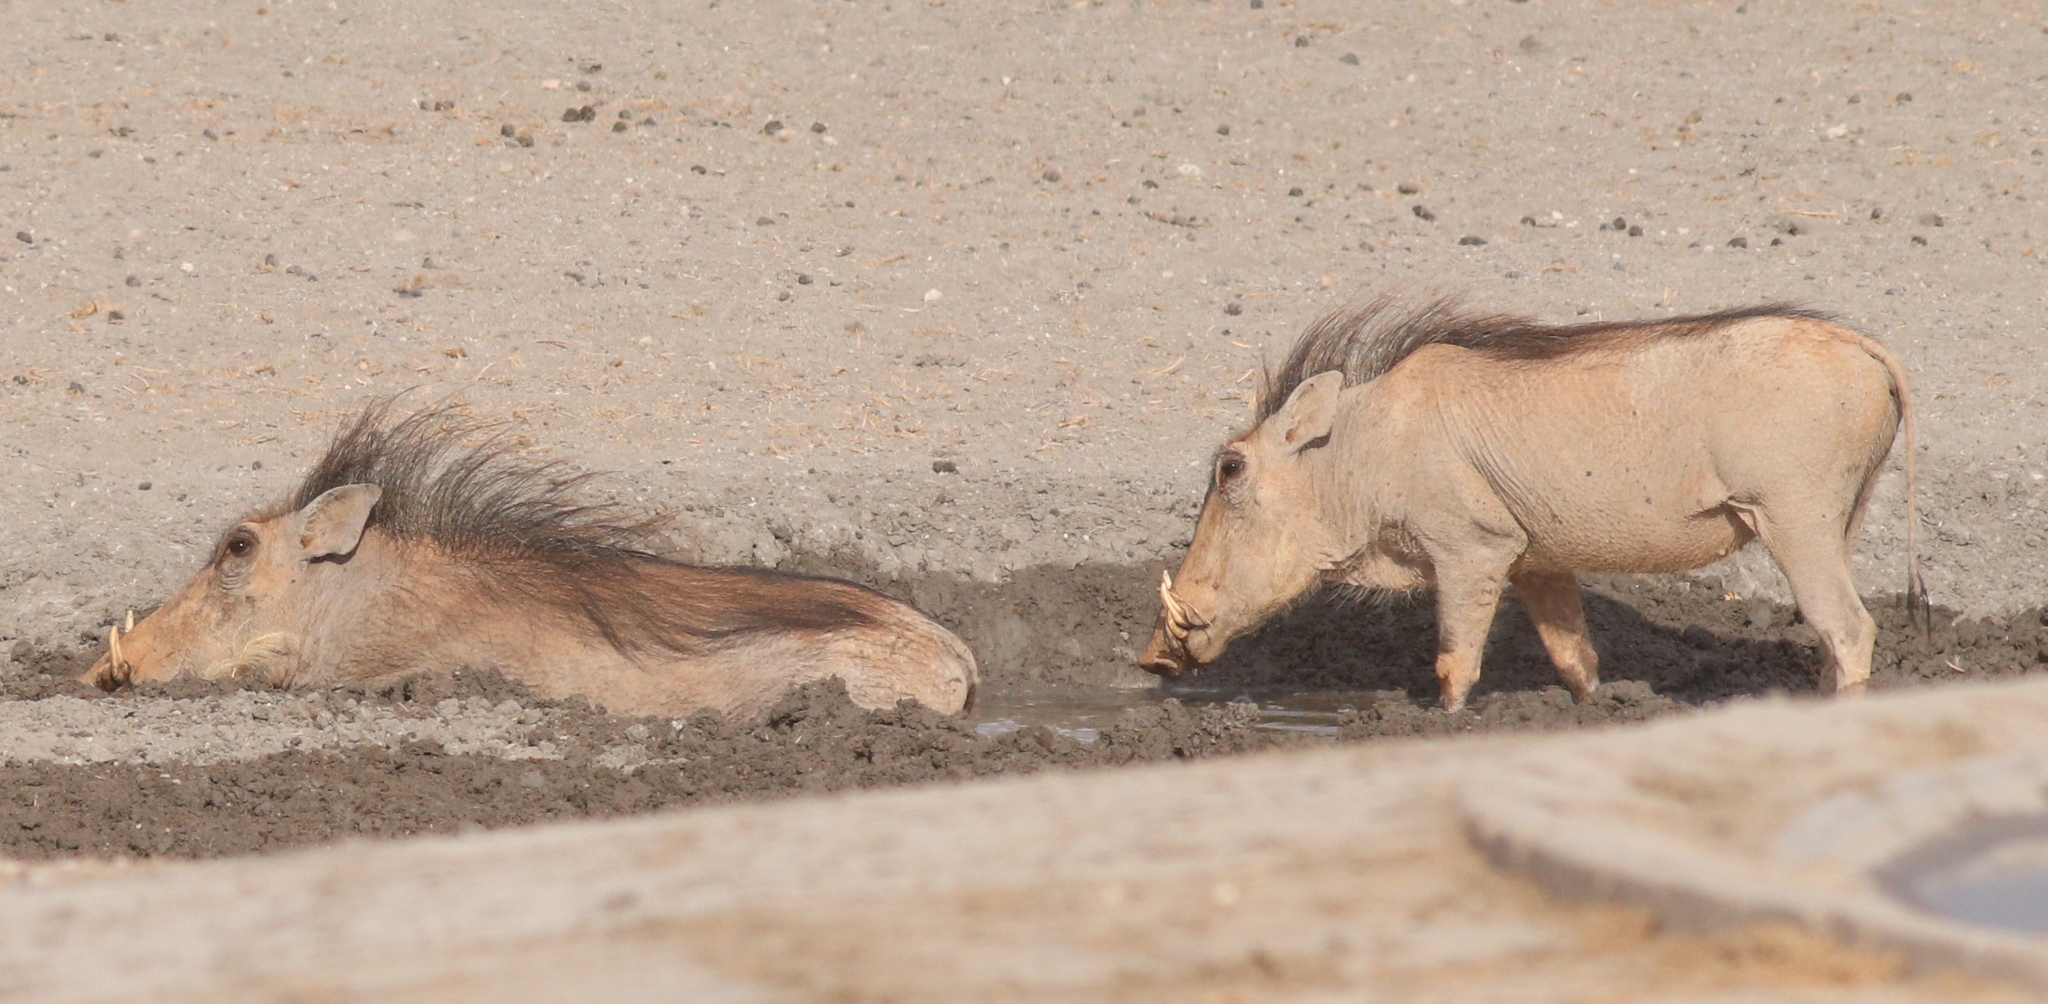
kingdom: Animalia
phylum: Chordata
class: Mammalia
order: Artiodactyla
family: Suidae
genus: Phacochoerus
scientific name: Phacochoerus africanus
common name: Common warthog
